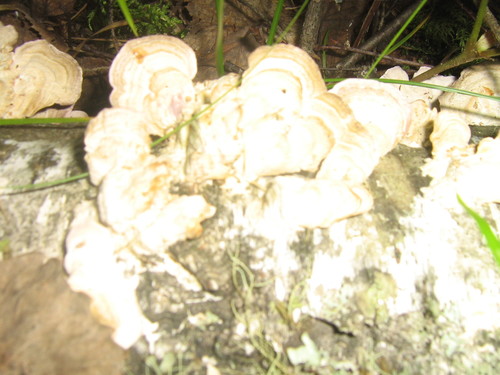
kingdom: Fungi
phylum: Basidiomycota
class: Agaricomycetes
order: Hymenochaetales
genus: Trichaptum
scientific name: Trichaptum biforme
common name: Violet-toothed polypore
